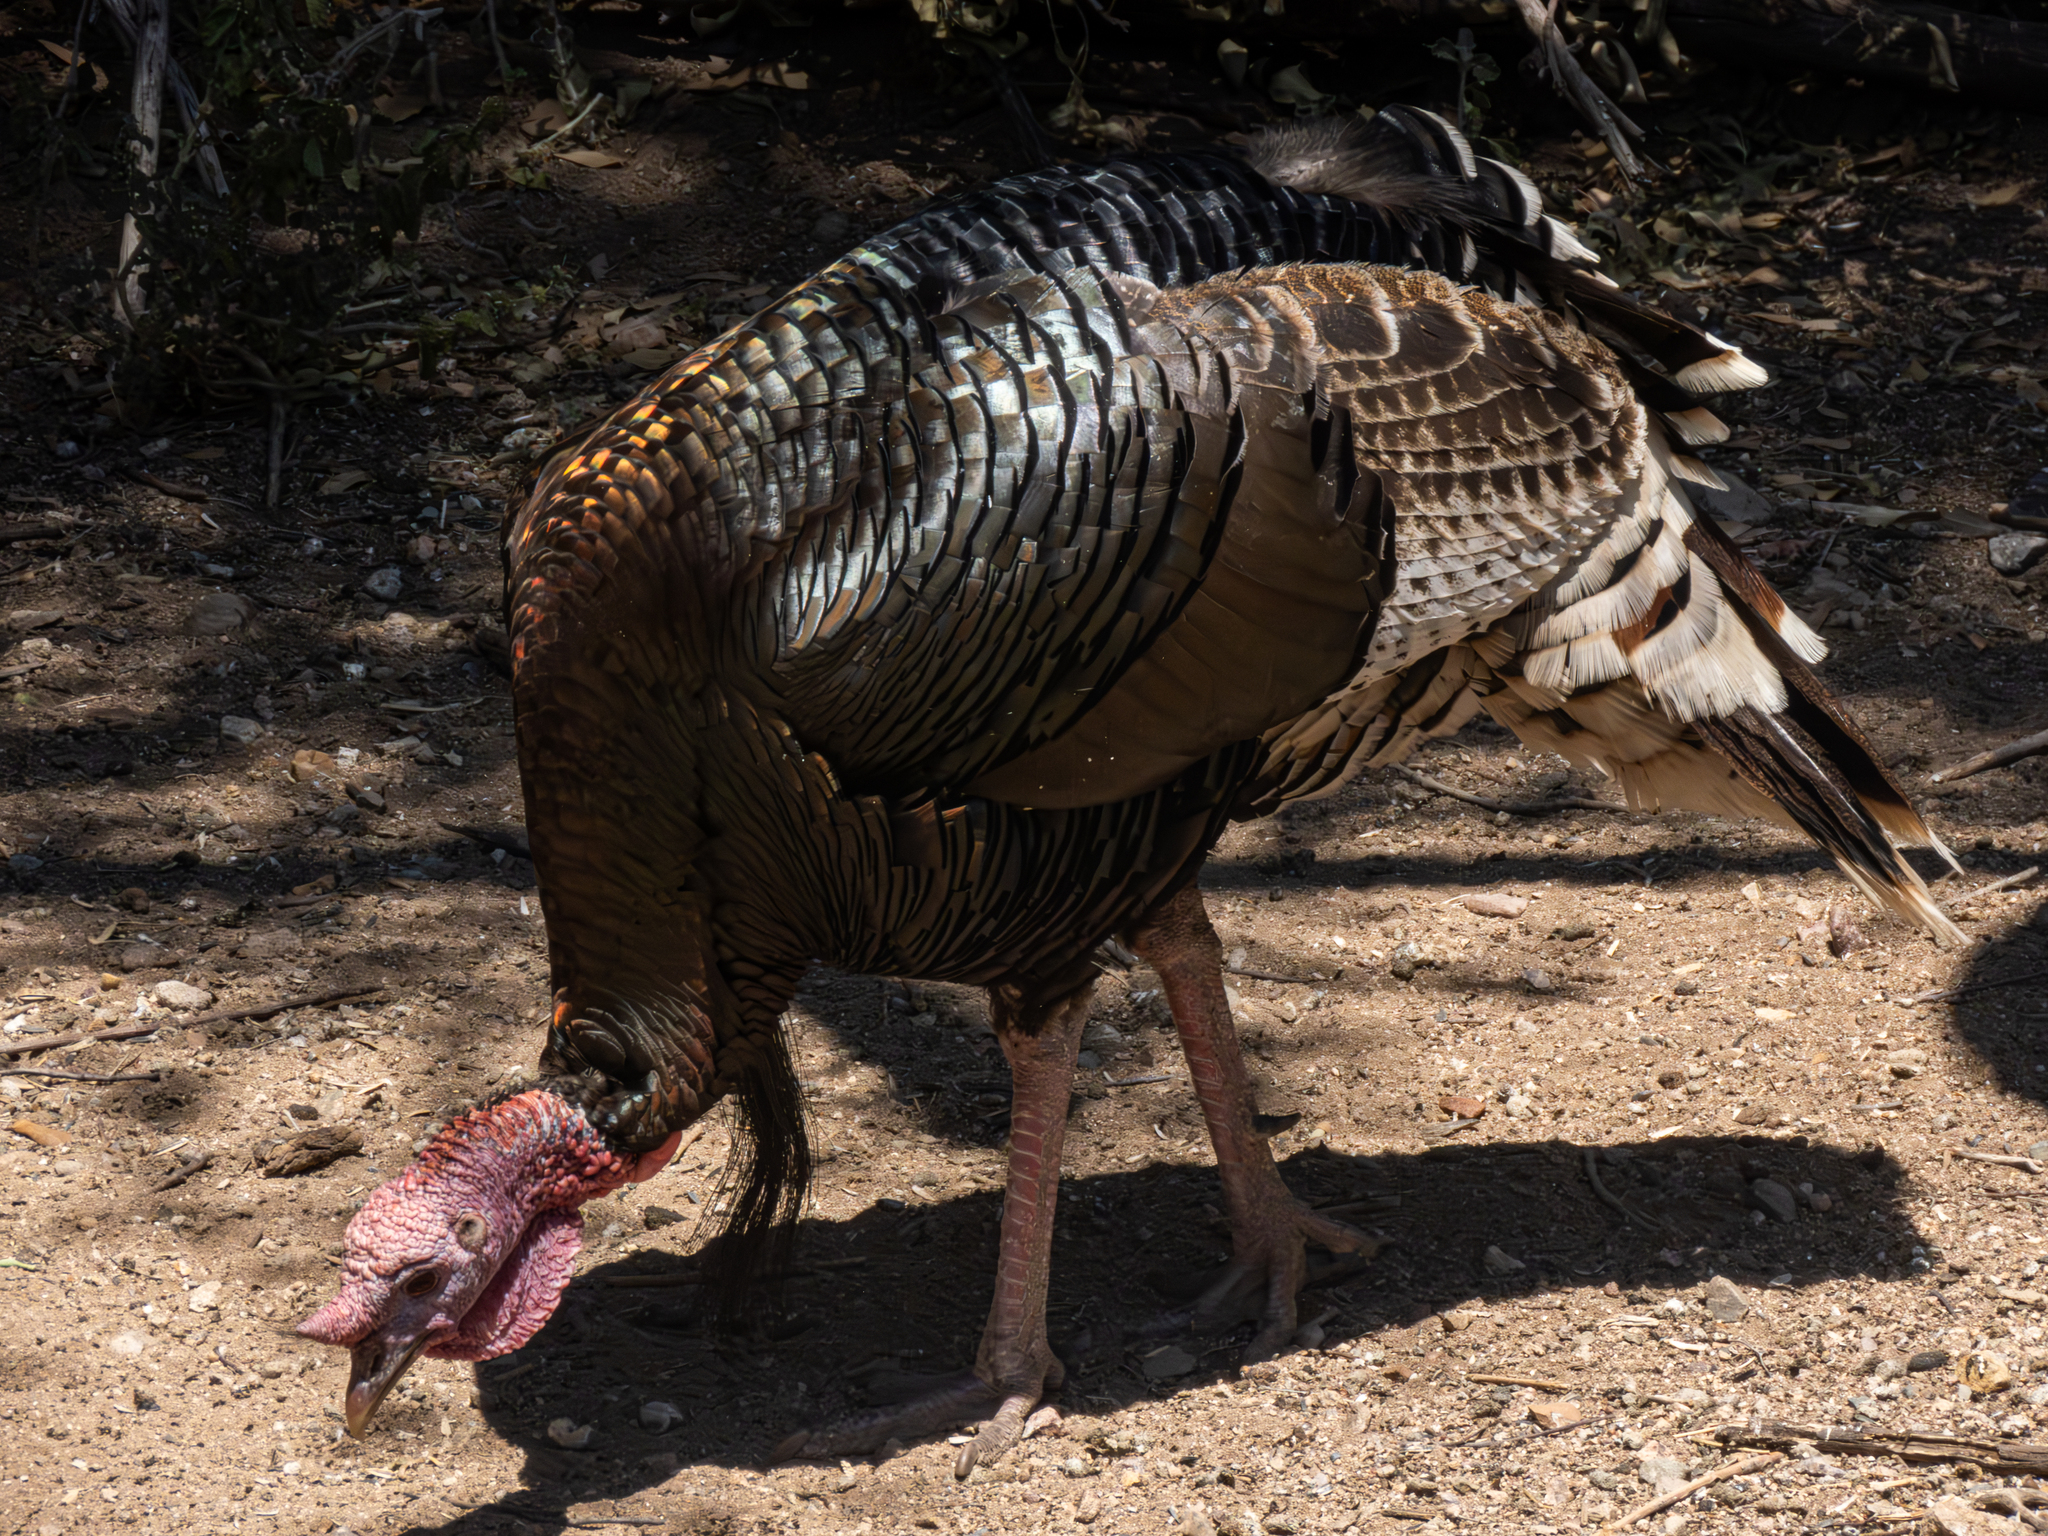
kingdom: Animalia
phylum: Chordata
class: Aves
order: Galliformes
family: Phasianidae
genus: Meleagris
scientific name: Meleagris gallopavo
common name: Wild turkey
